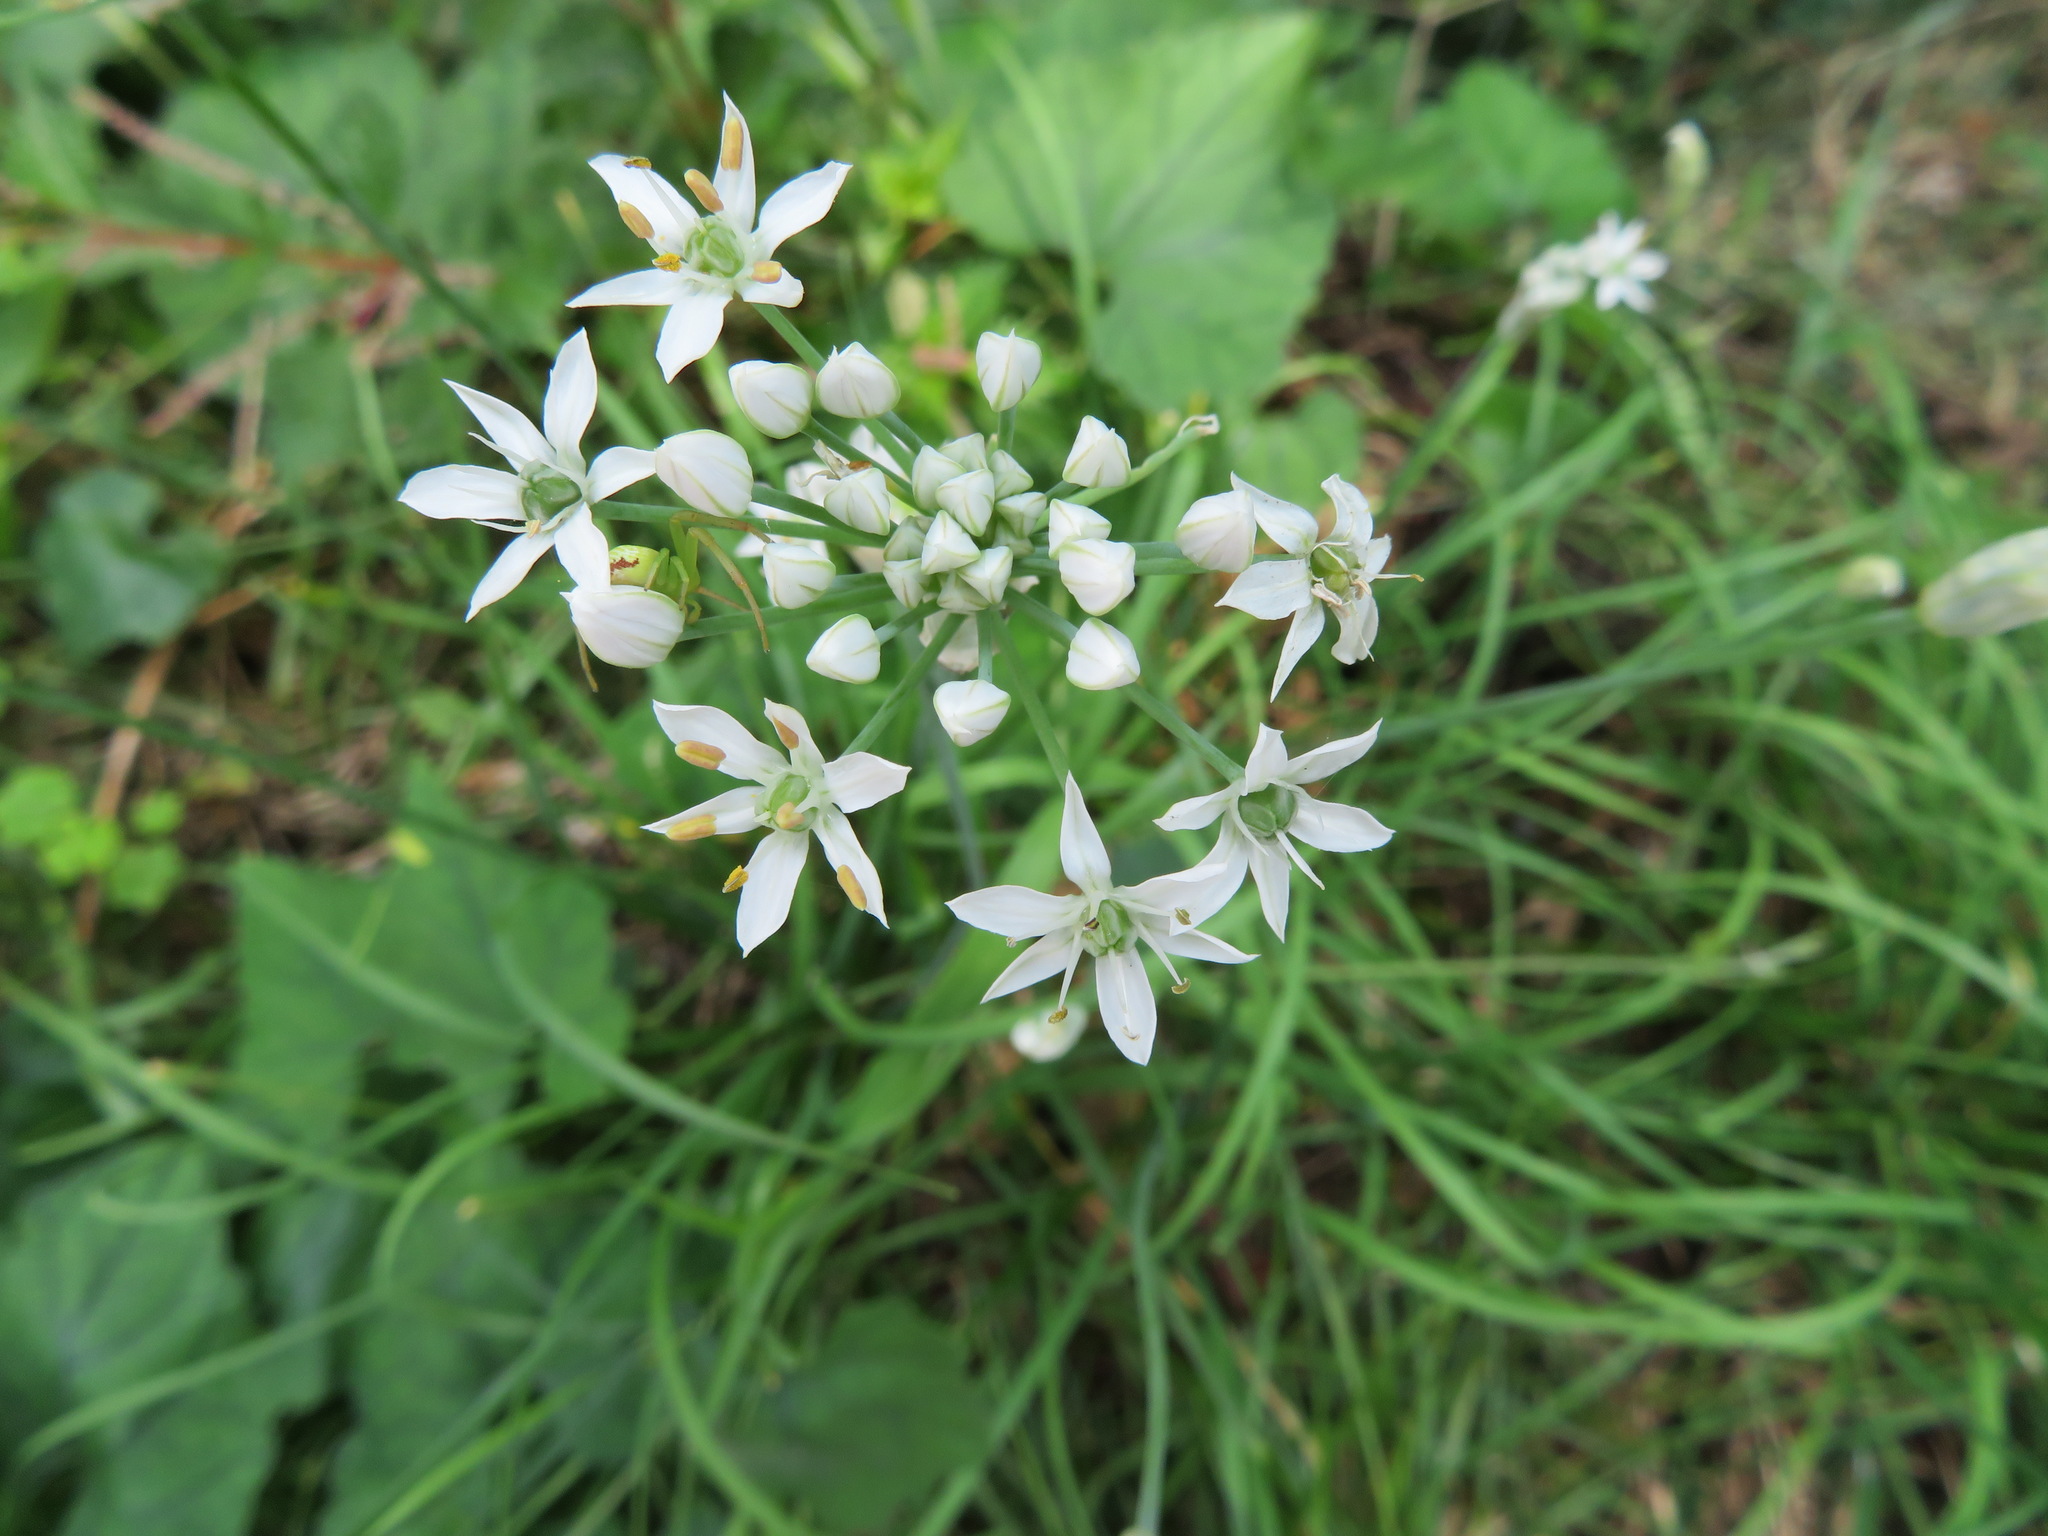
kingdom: Plantae
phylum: Tracheophyta
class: Liliopsida
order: Asparagales
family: Amaryllidaceae
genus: Allium
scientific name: Allium tuberosum
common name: Chinese chives
